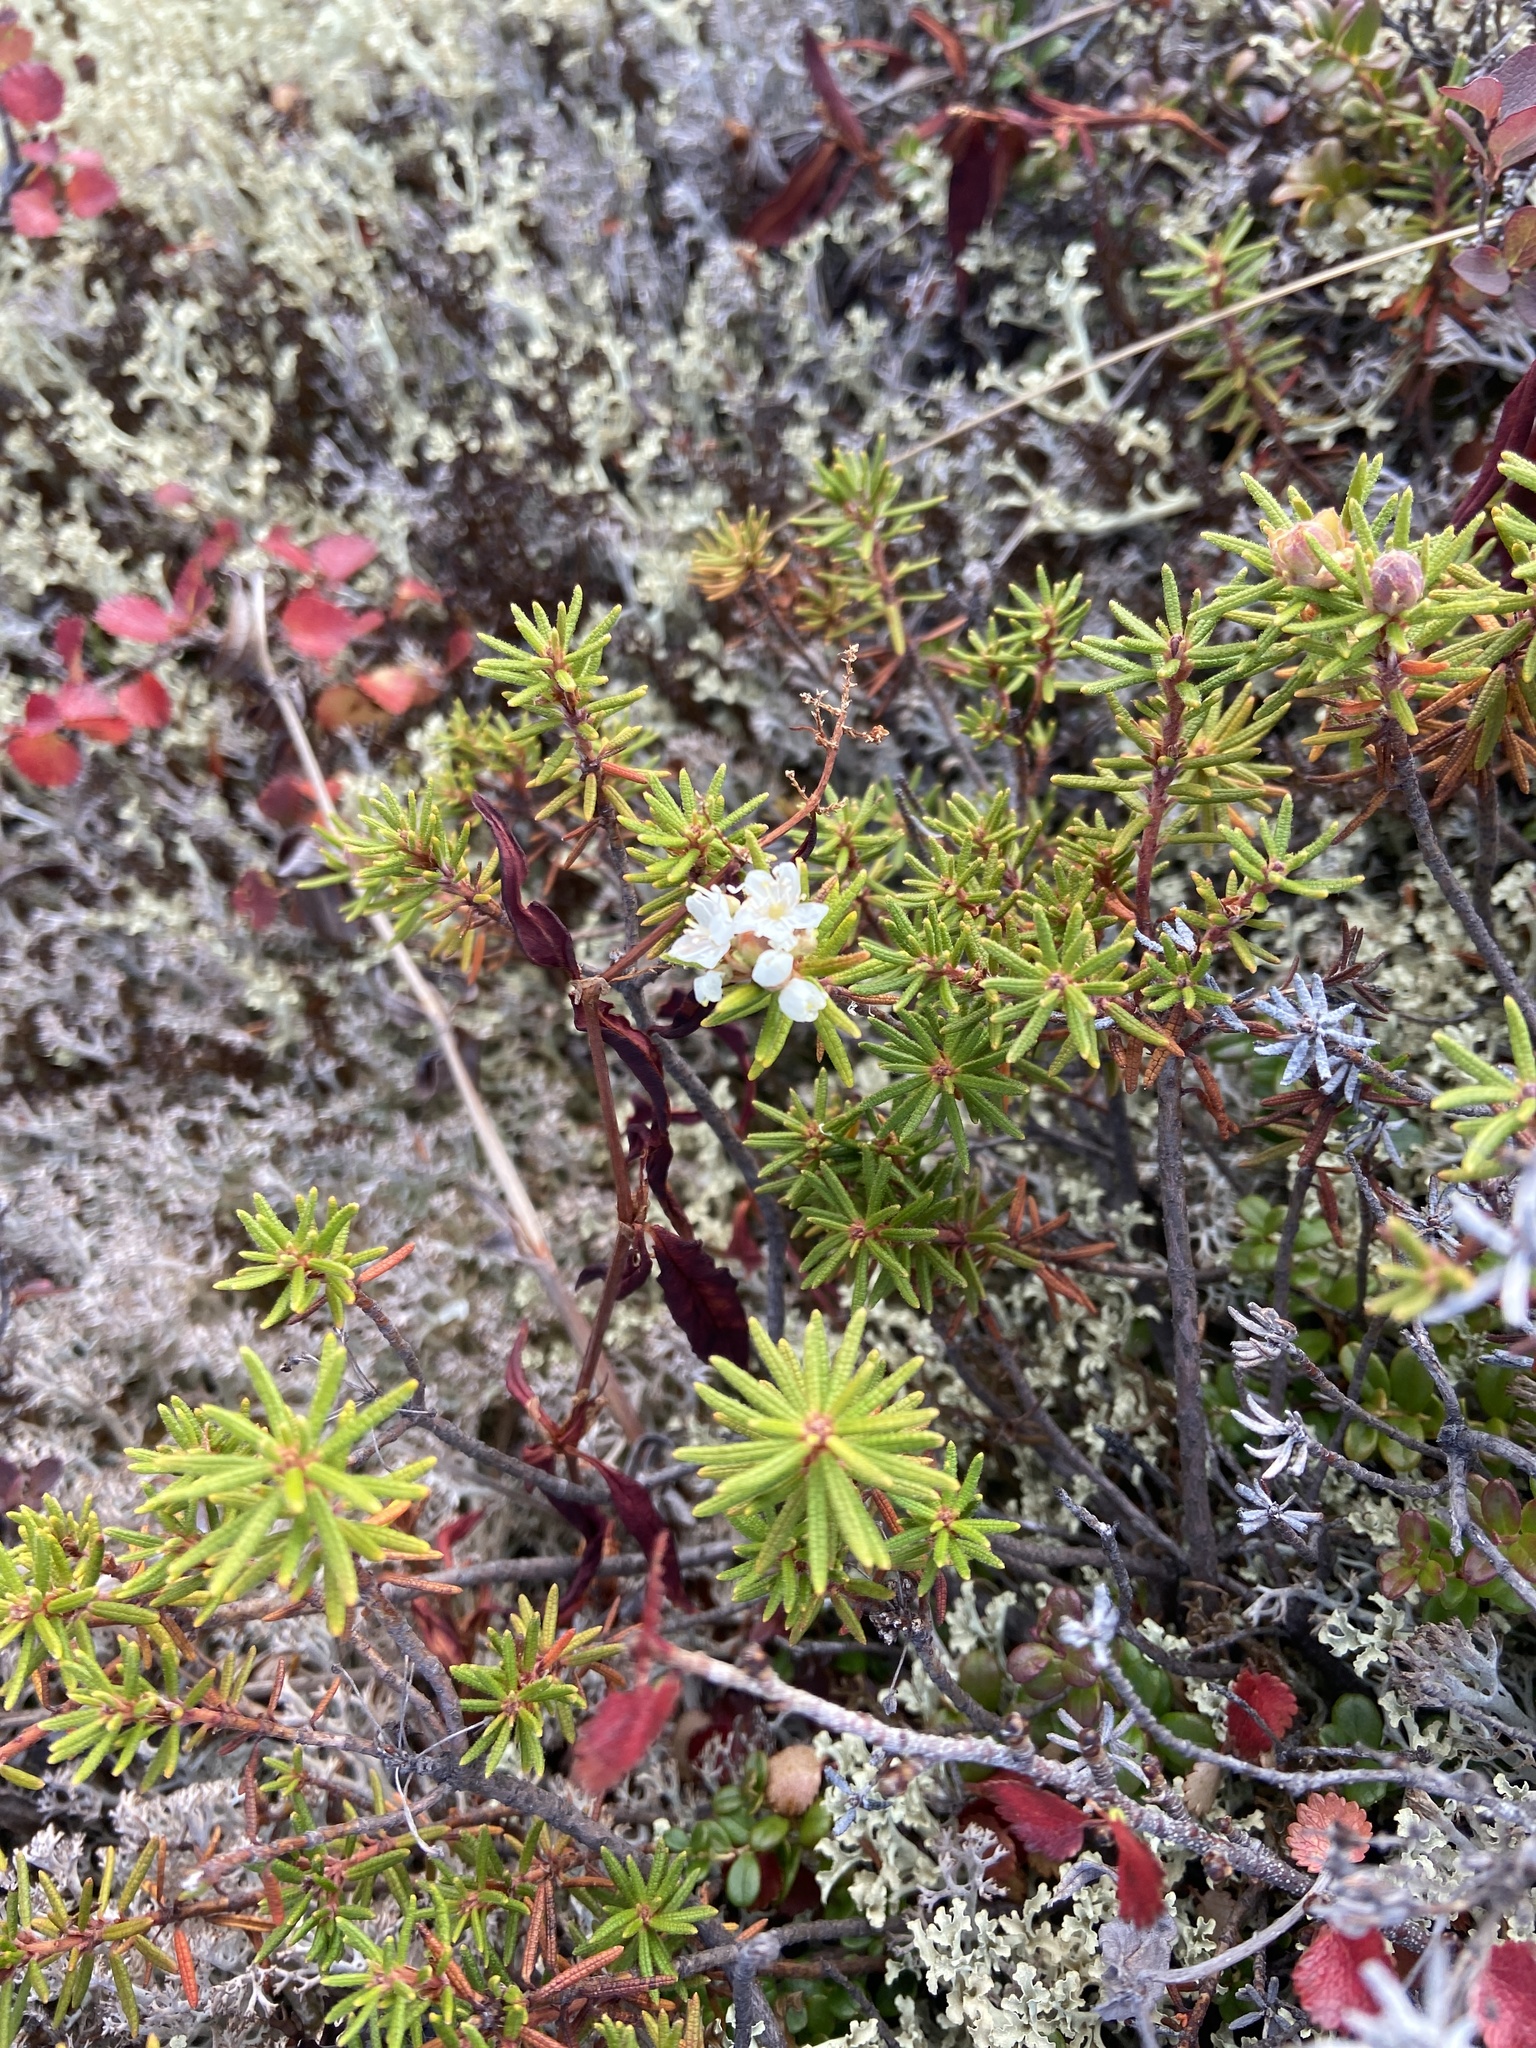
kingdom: Plantae
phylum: Tracheophyta
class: Magnoliopsida
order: Ericales
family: Ericaceae
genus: Rhododendron
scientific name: Rhododendron tomentosum
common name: Marsh labrador tea
